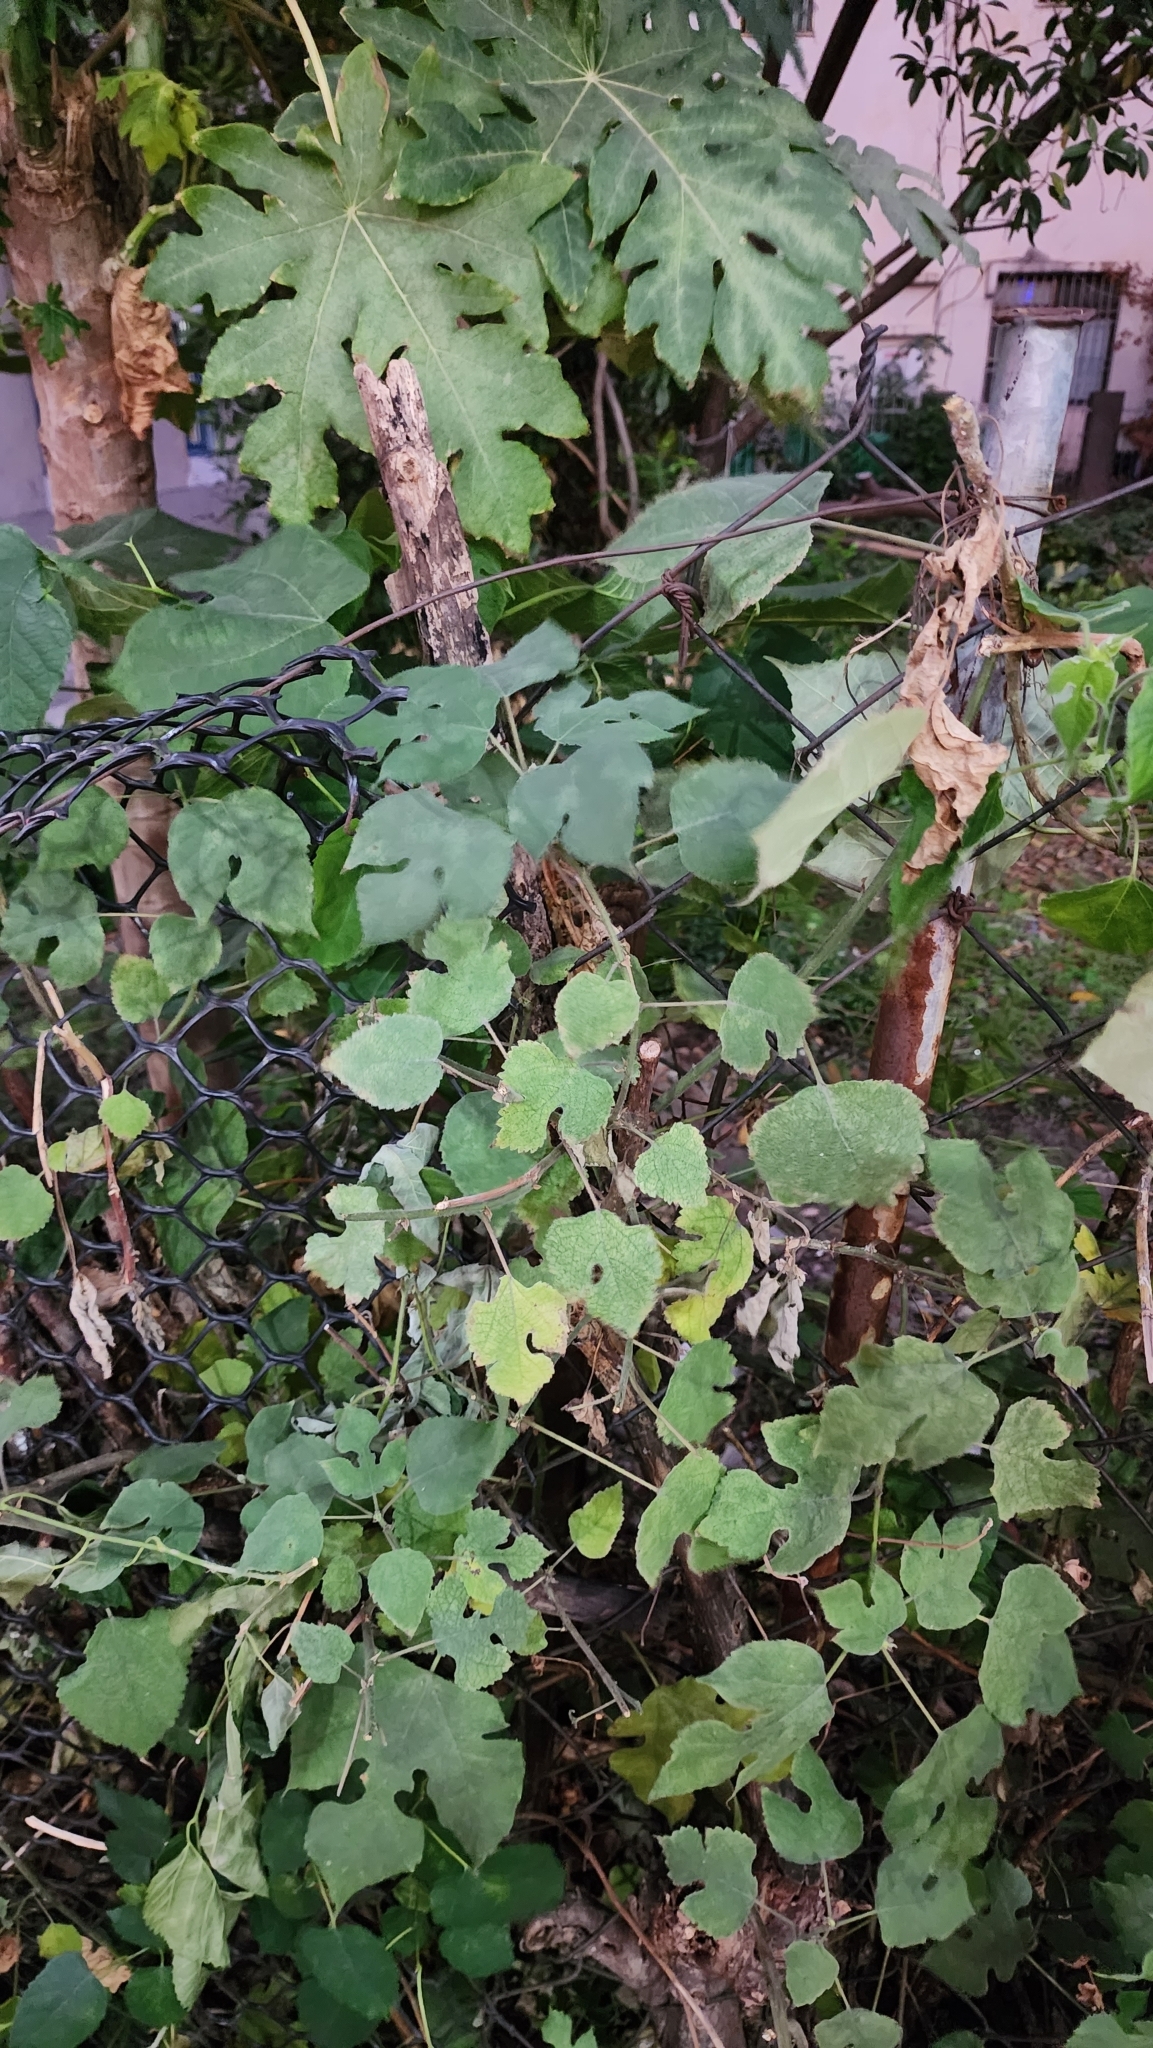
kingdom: Plantae
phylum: Tracheophyta
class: Magnoliopsida
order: Rosales
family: Moraceae
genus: Broussonetia
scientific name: Broussonetia papyrifera
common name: Paper mulberry
